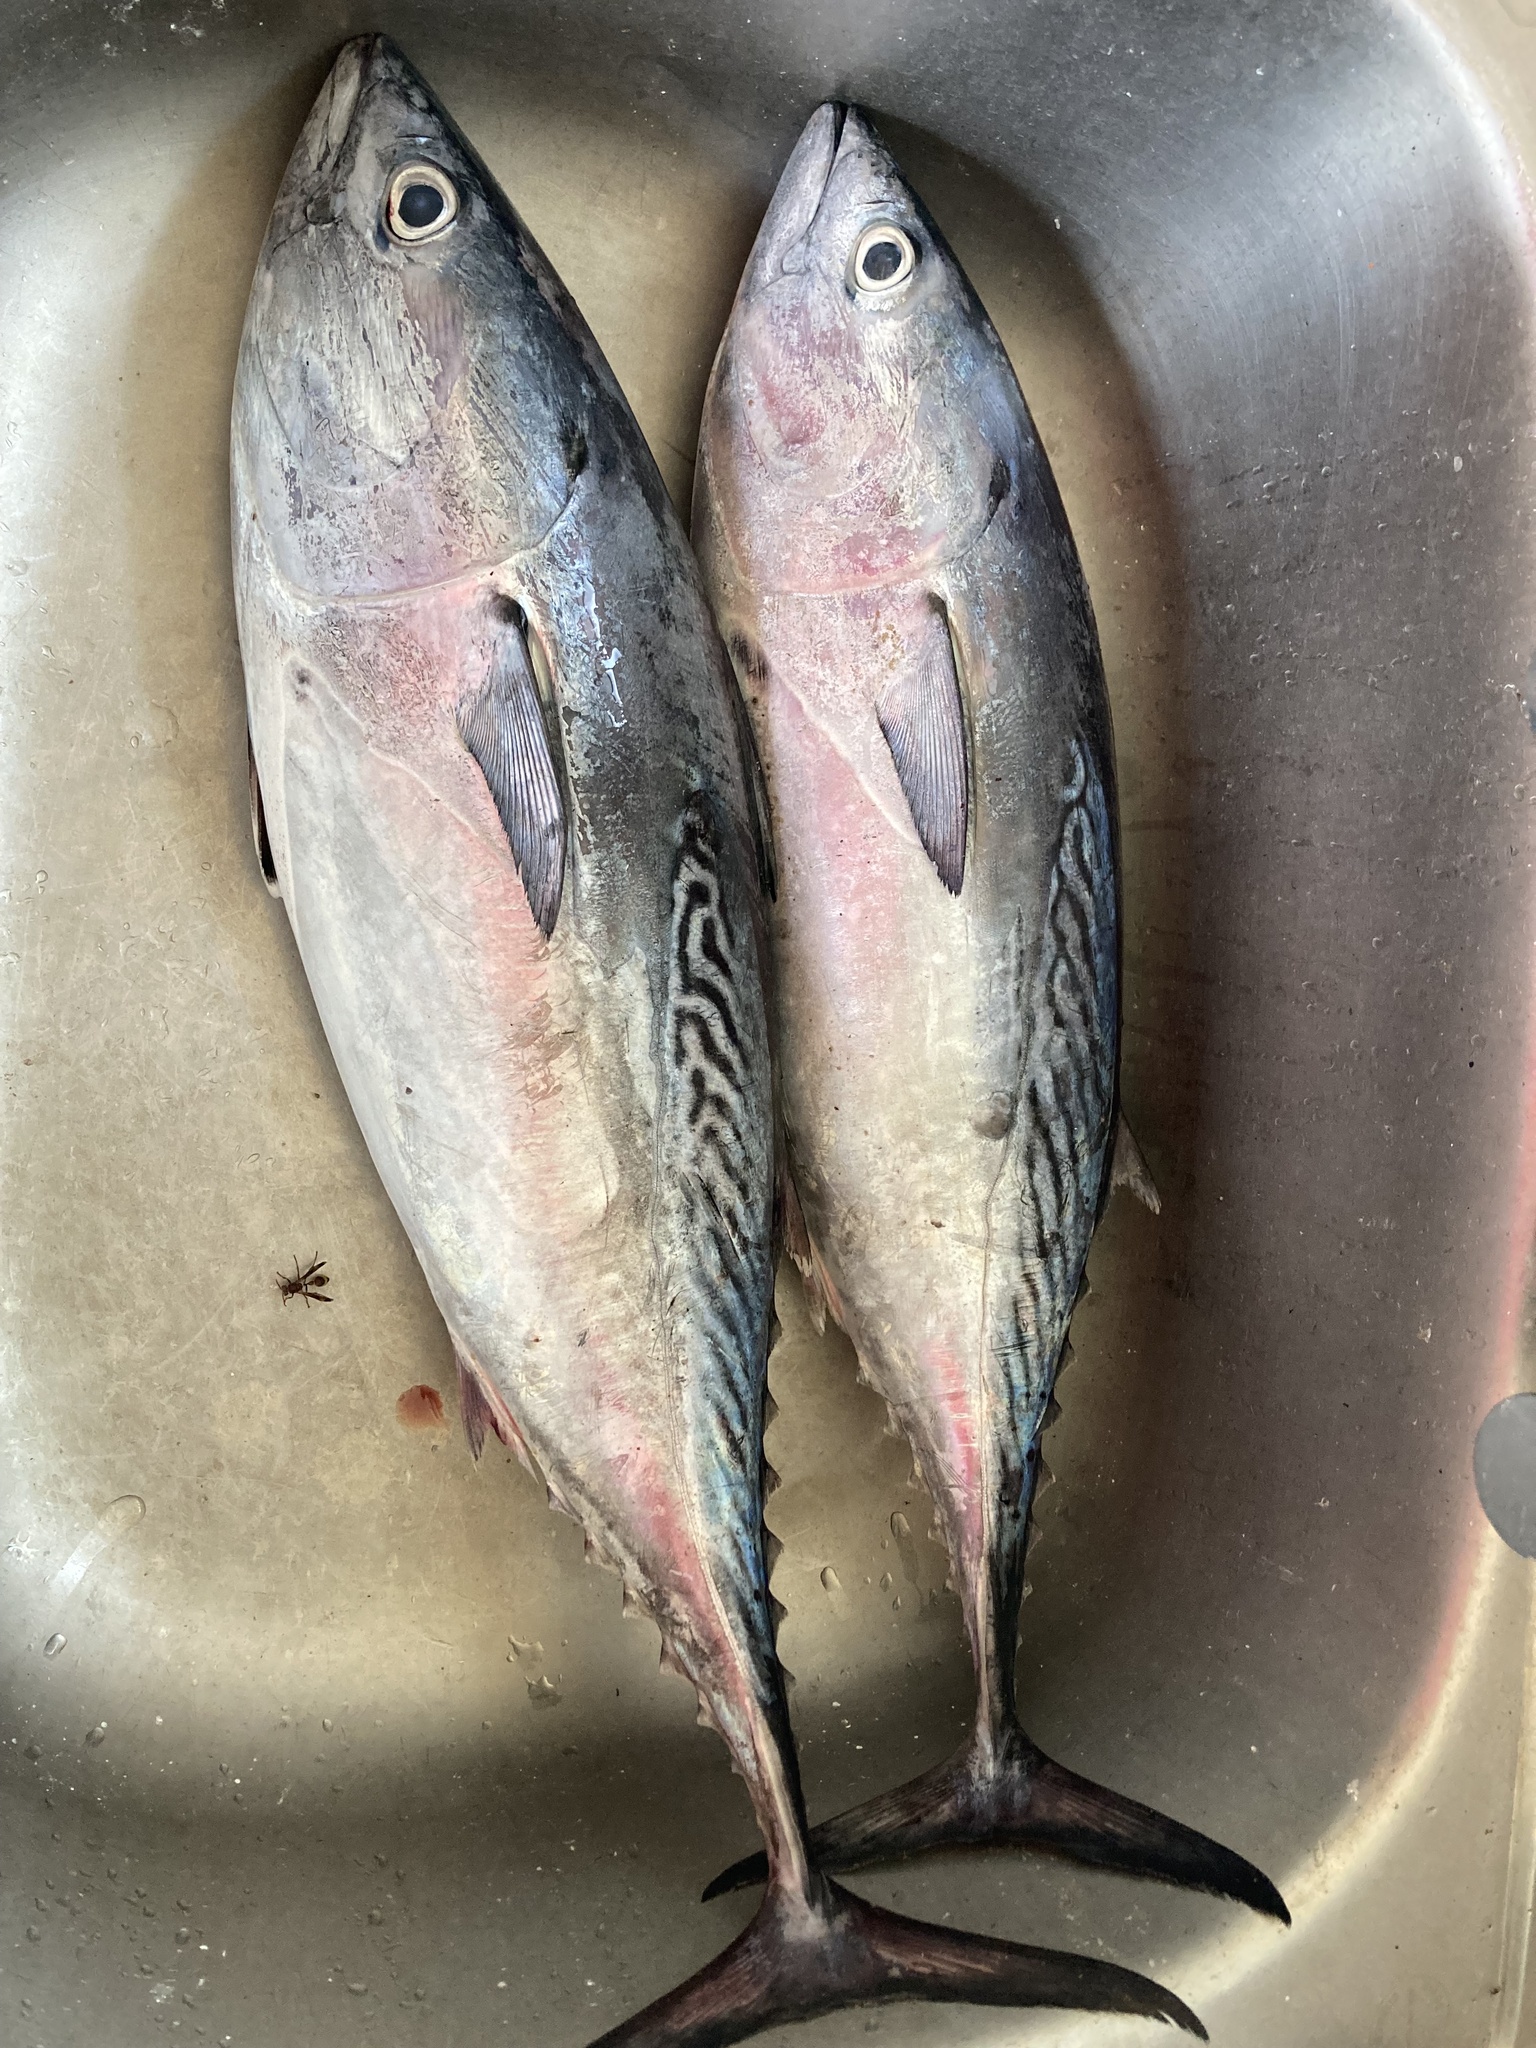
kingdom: Animalia
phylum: Chordata
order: Perciformes
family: Scombridae
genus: Euthynnus
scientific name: Euthynnus affinis
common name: Mackerel tuna
